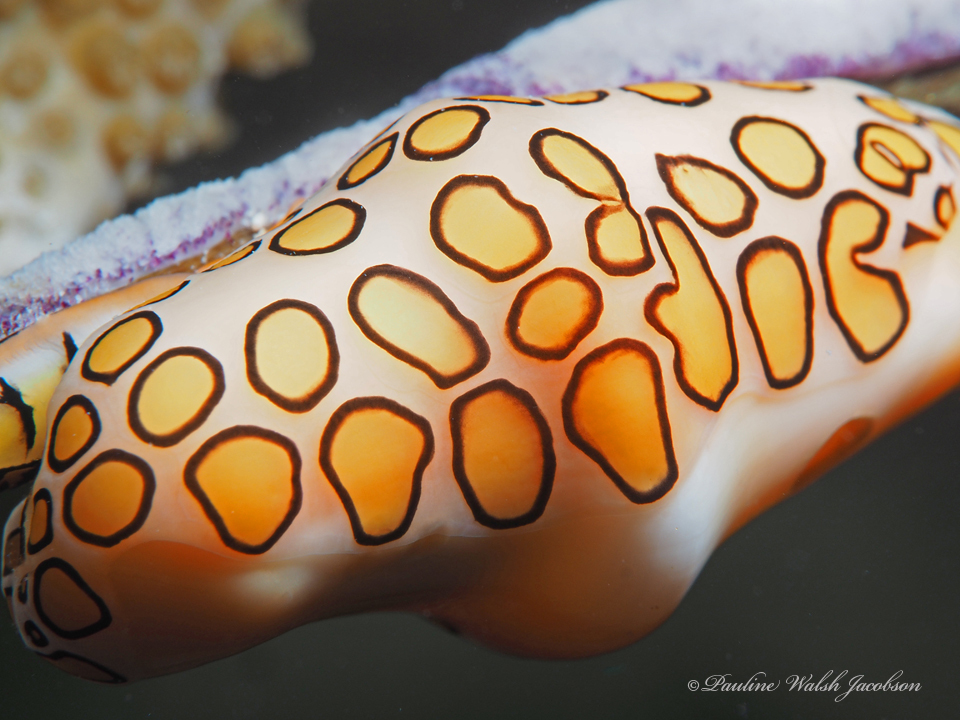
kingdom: Animalia
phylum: Mollusca
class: Gastropoda
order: Littorinimorpha
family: Ovulidae
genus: Cyphoma
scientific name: Cyphoma gibbosum
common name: Flamingo tongue
